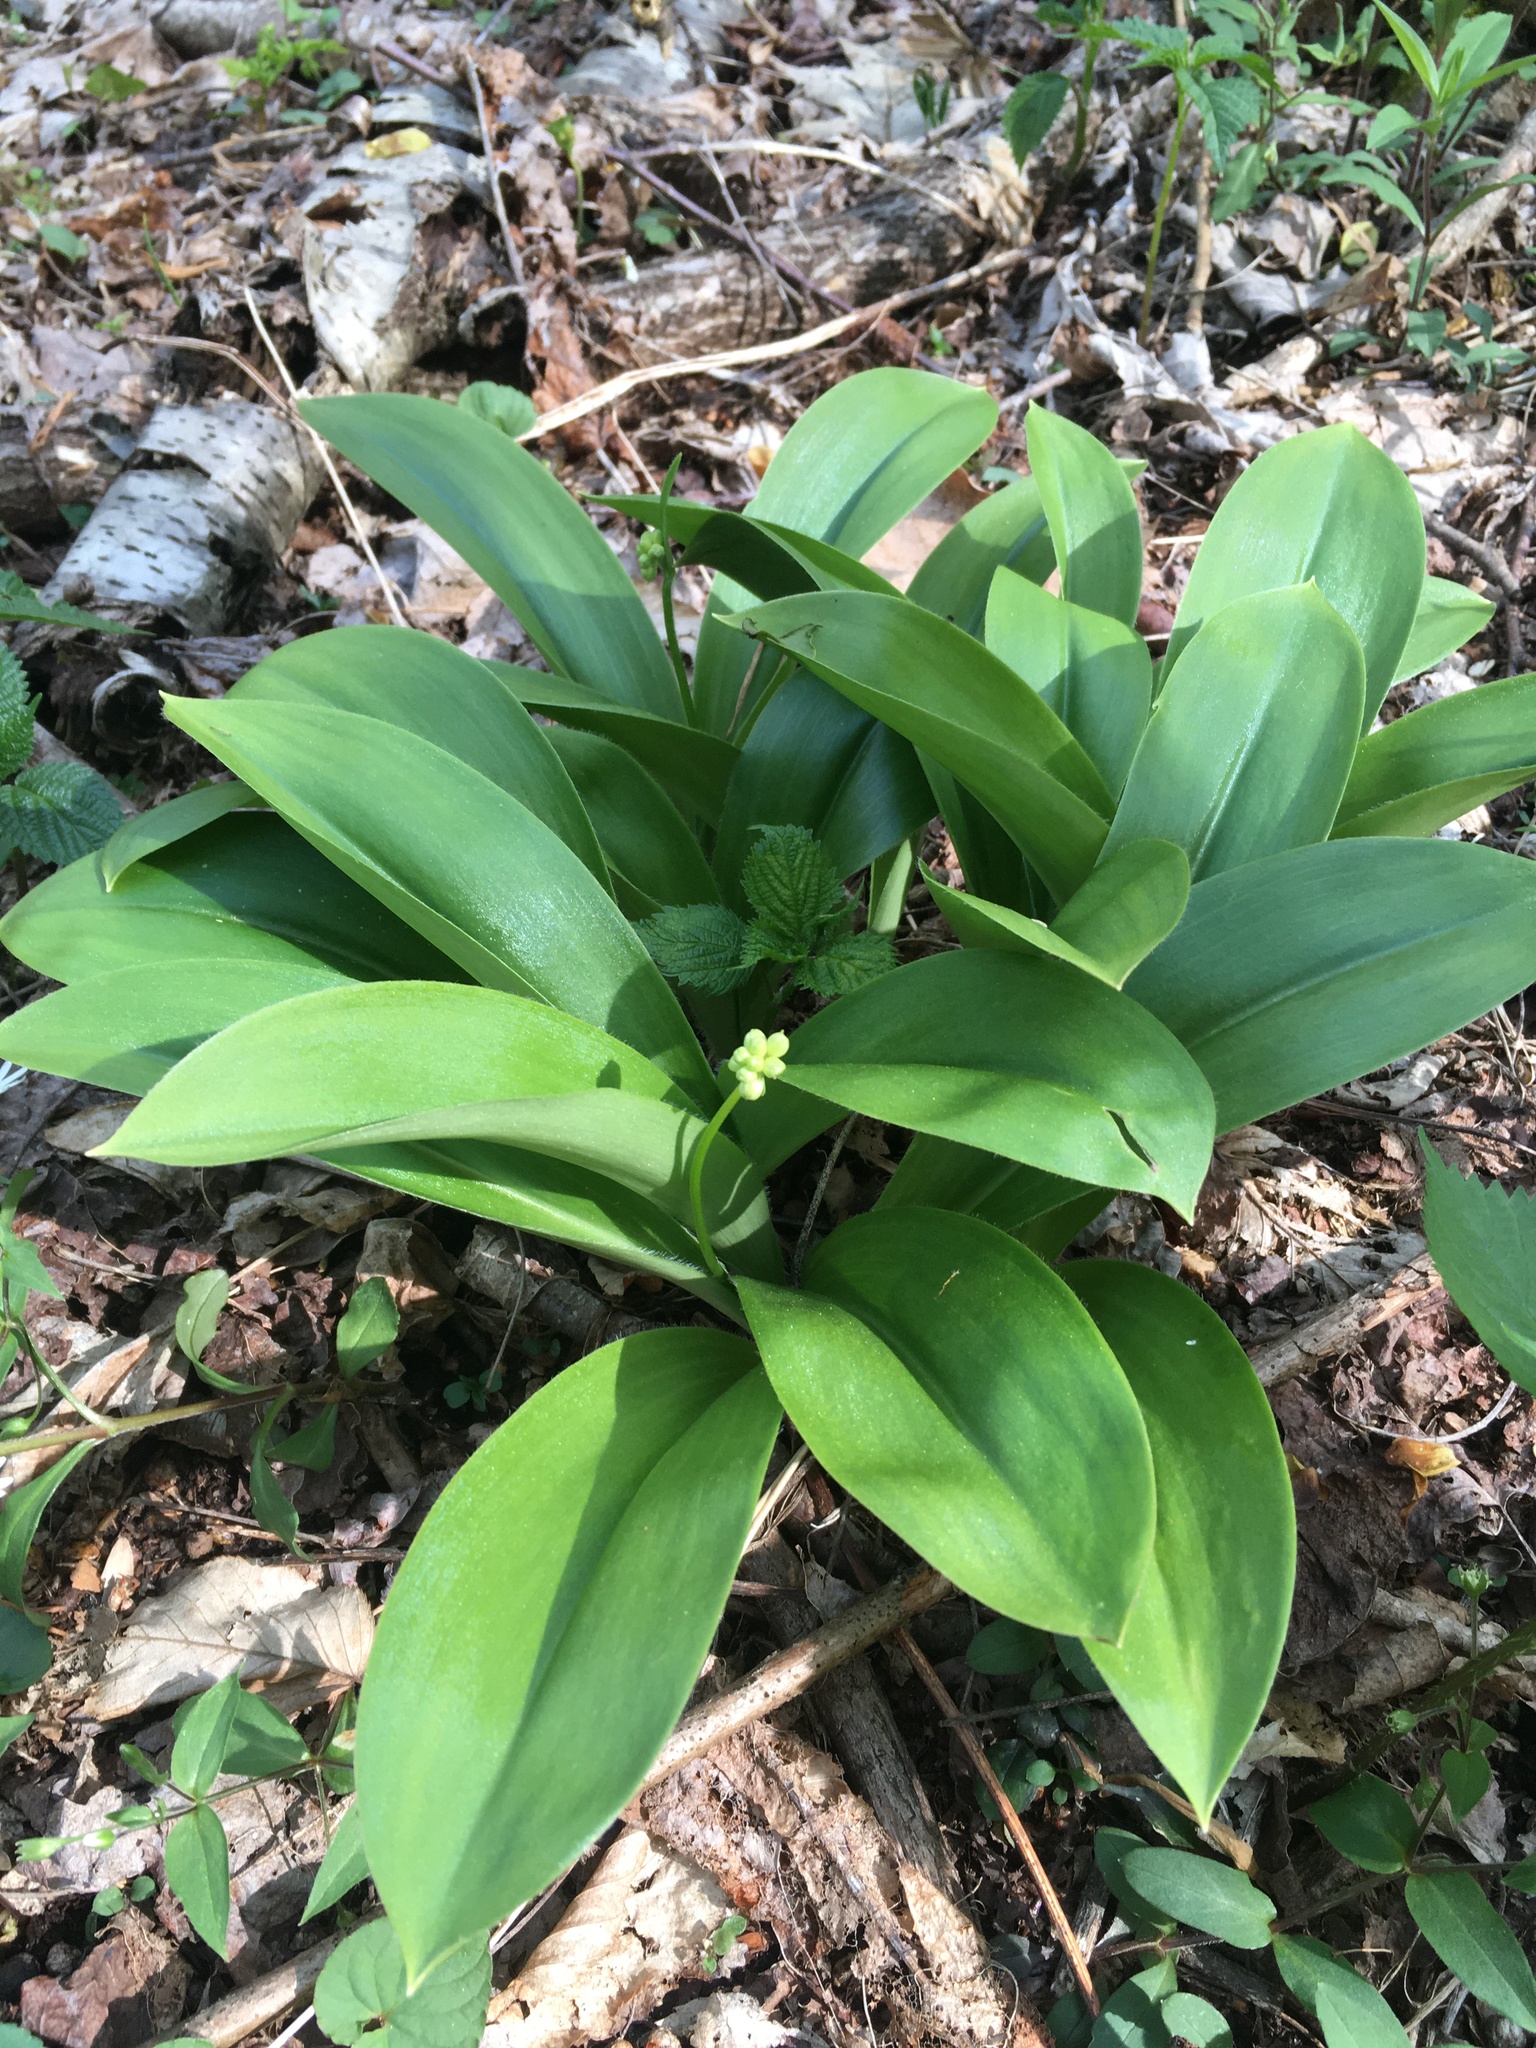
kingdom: Plantae
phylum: Tracheophyta
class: Liliopsida
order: Liliales
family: Liliaceae
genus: Clintonia
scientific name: Clintonia umbellulata
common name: Speckle wood-lily
